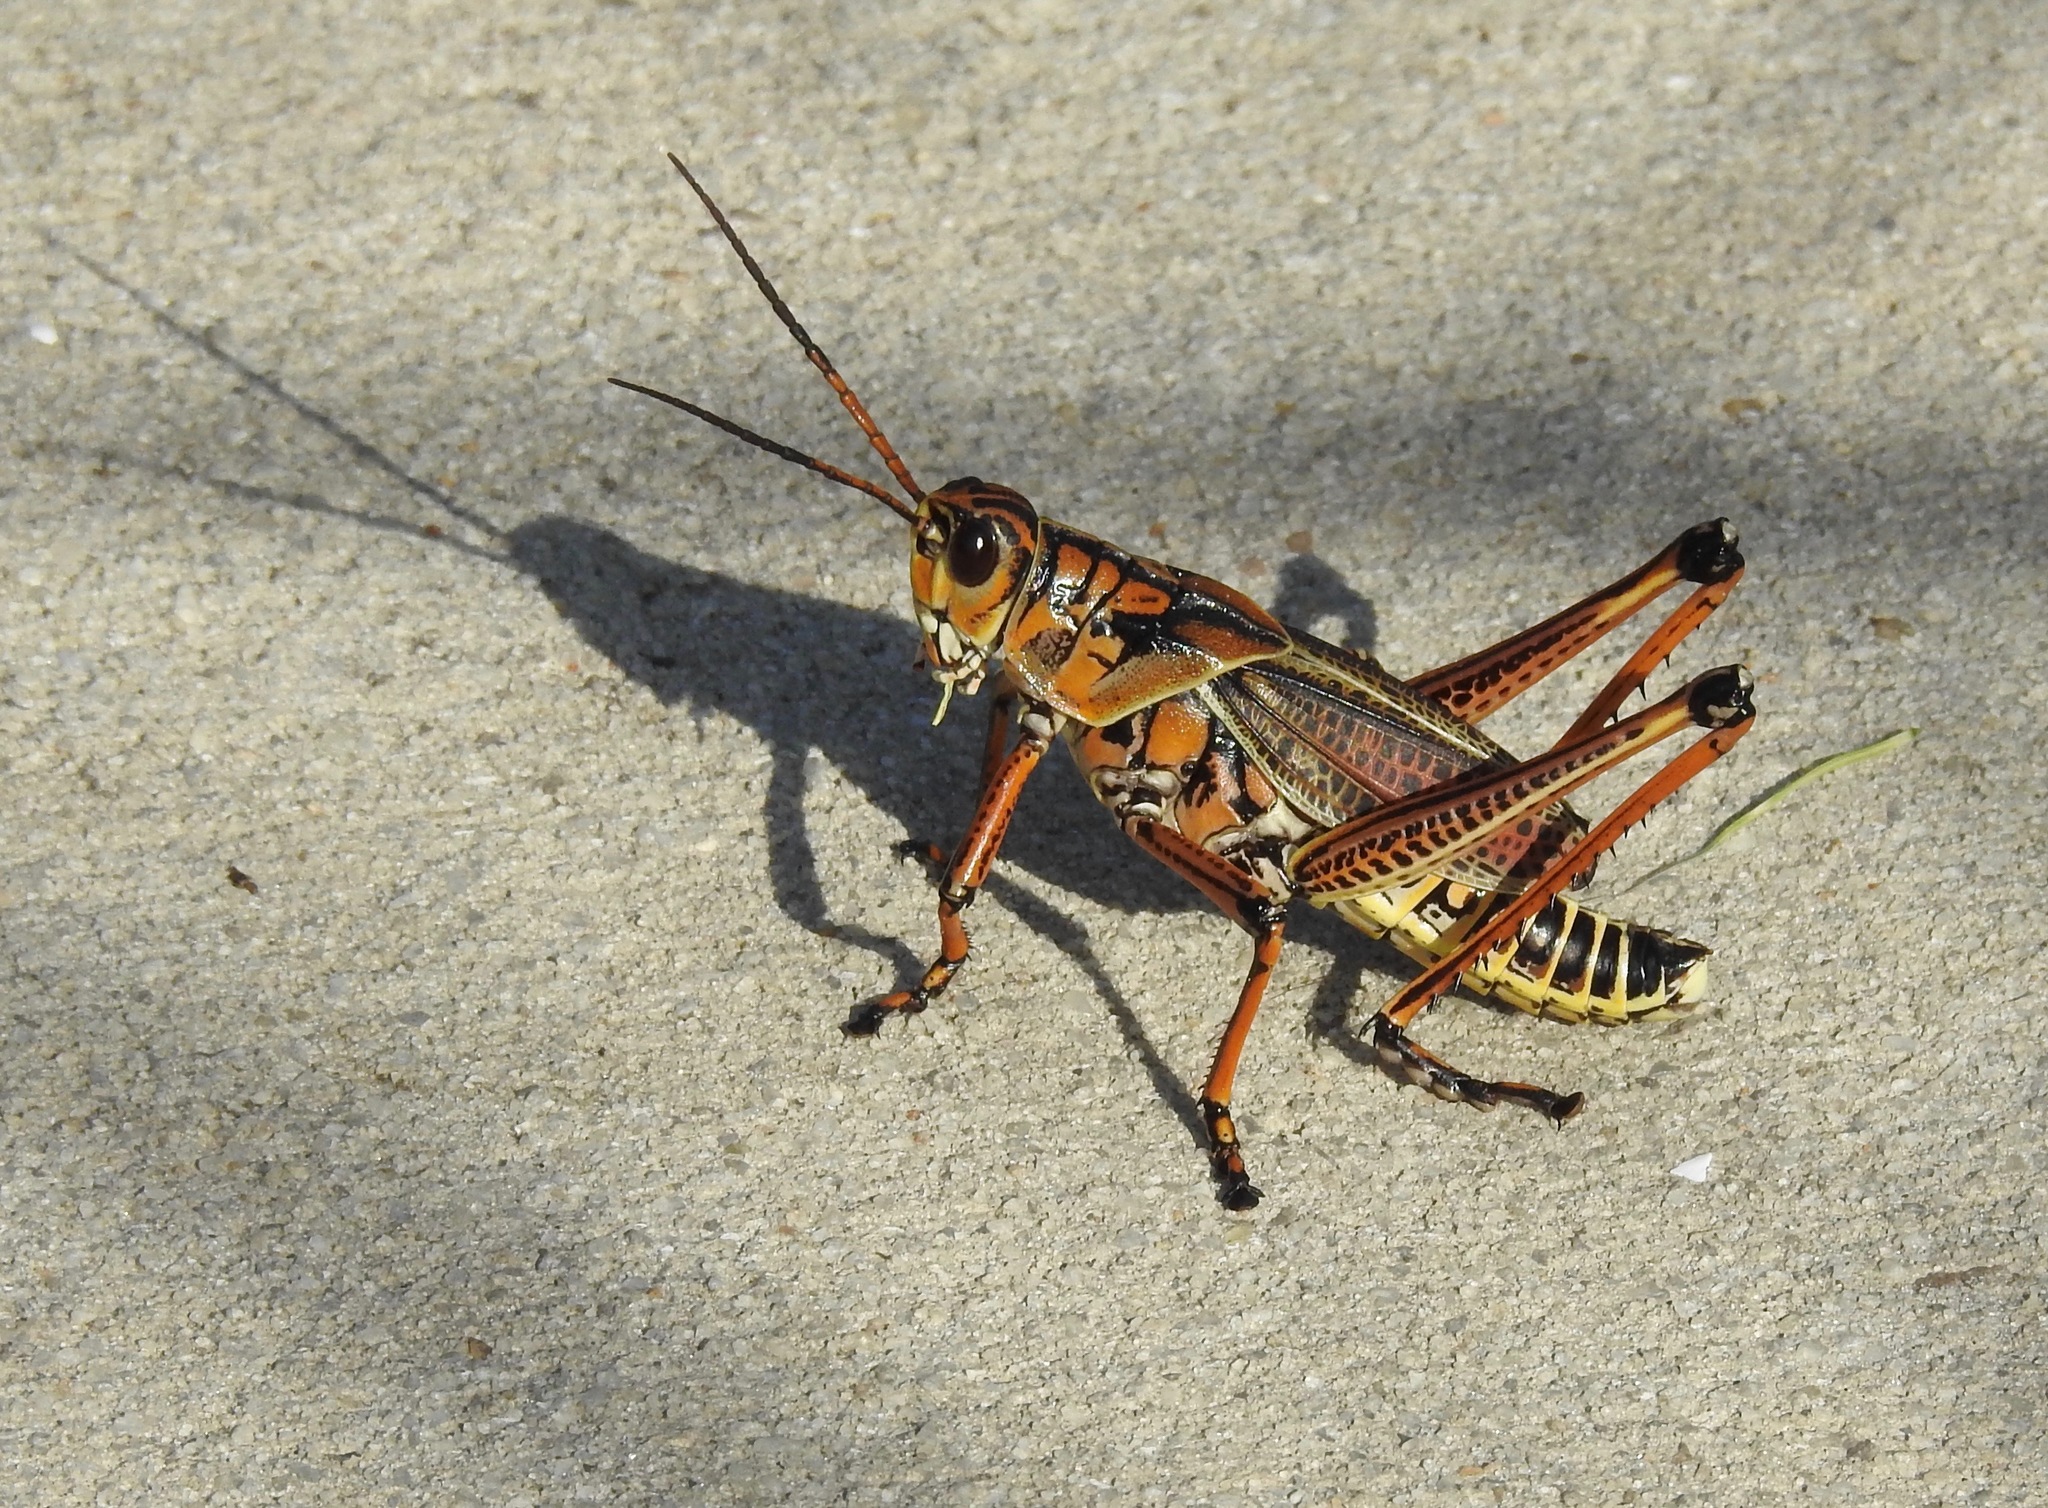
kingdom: Animalia
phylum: Arthropoda
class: Insecta
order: Orthoptera
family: Romaleidae
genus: Romalea
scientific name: Romalea microptera
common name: Eastern lubber grasshopper
